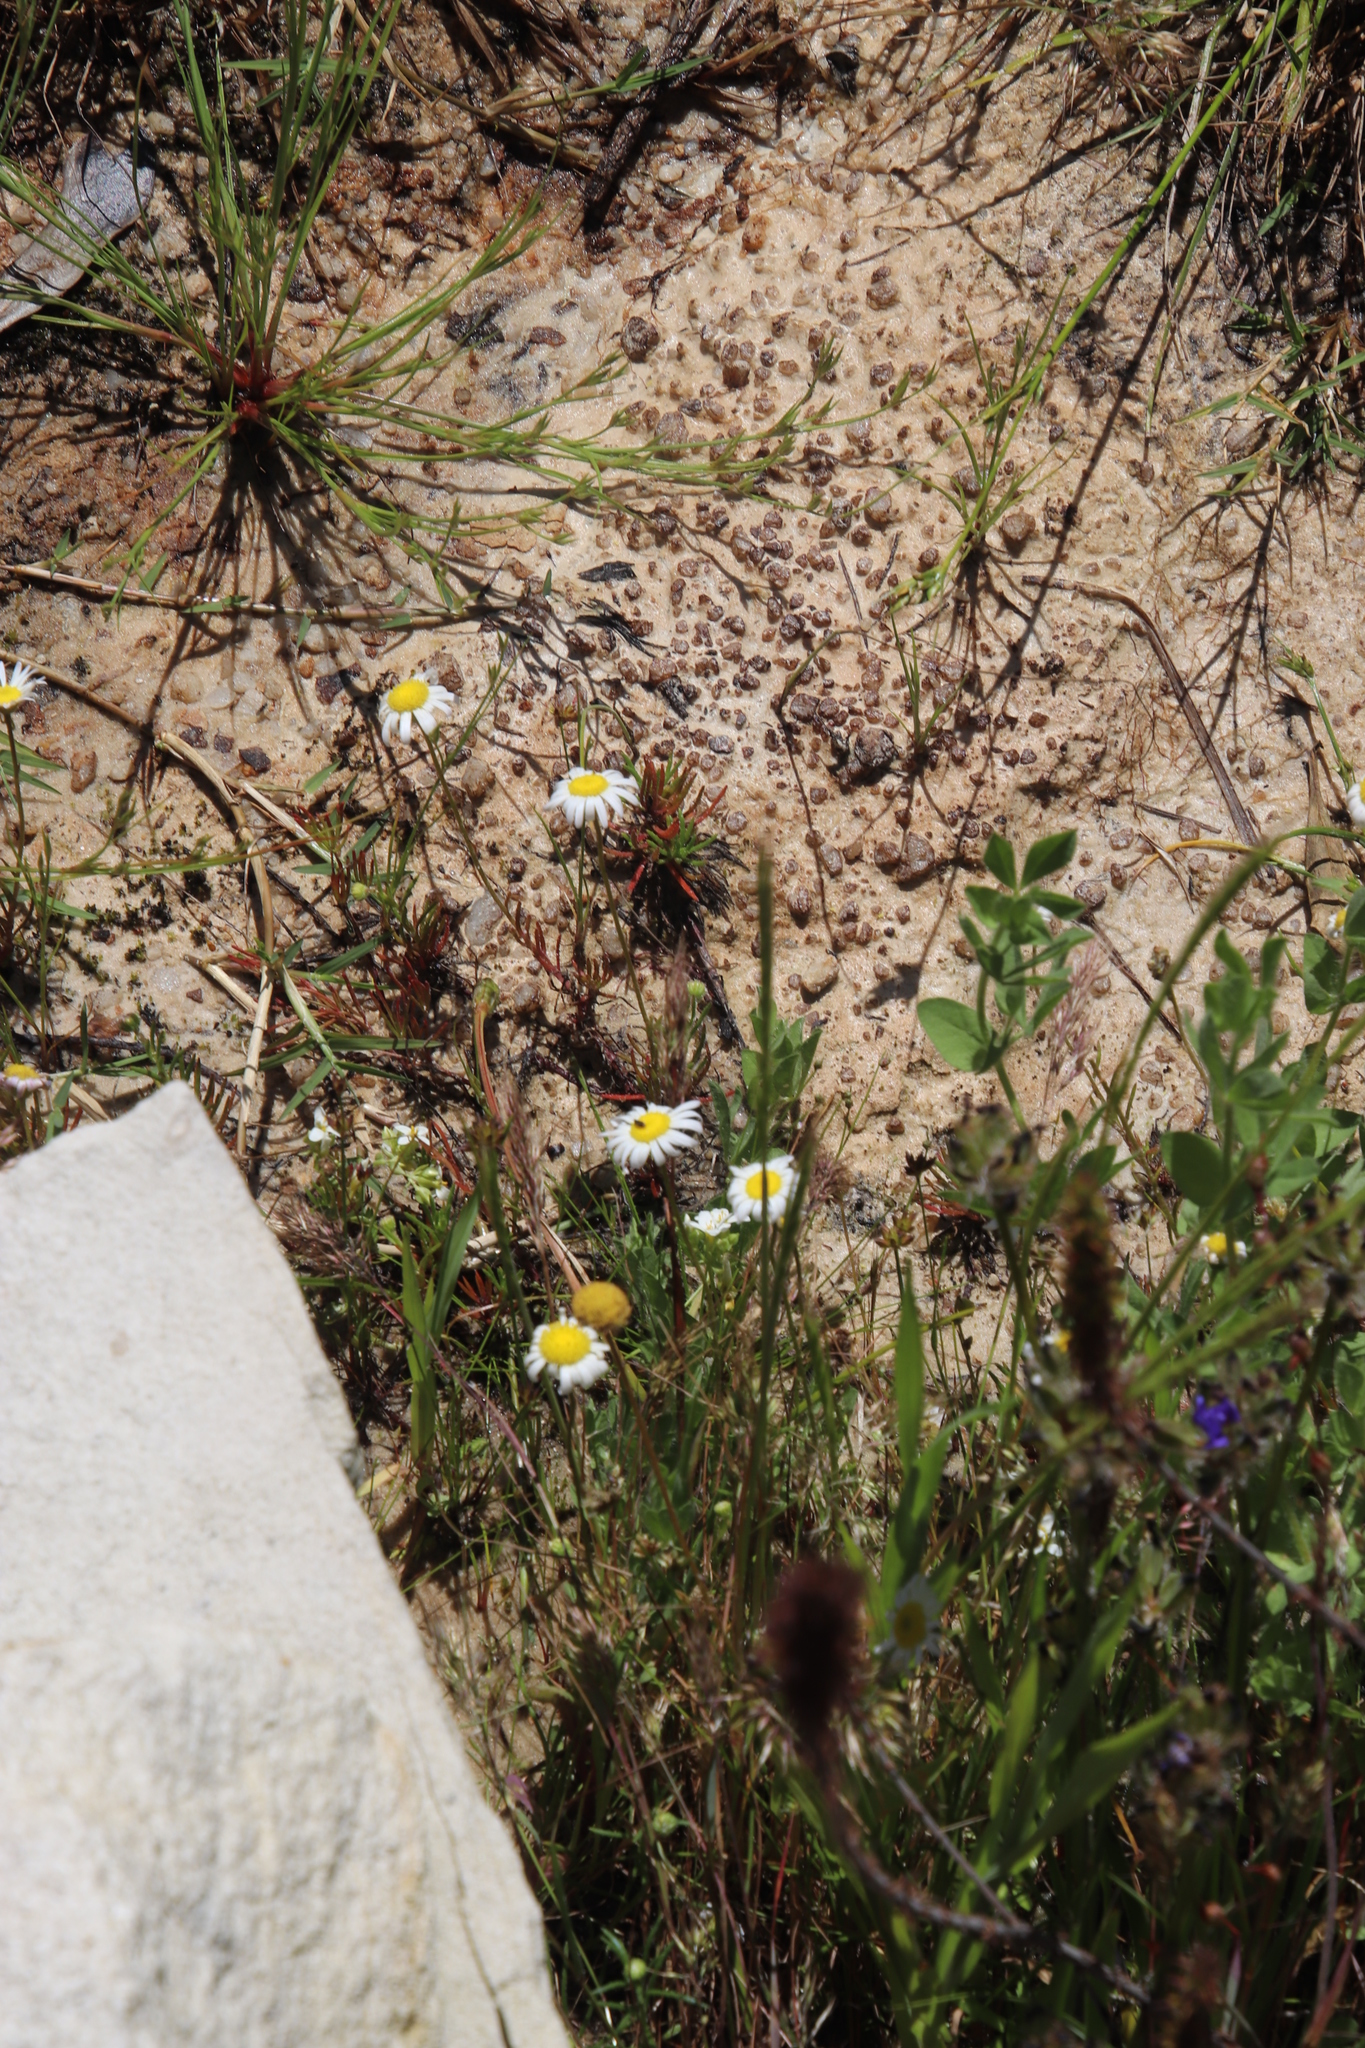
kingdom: Plantae
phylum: Tracheophyta
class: Magnoliopsida
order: Asterales
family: Asteraceae
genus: Felicia
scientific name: Felicia tenella
